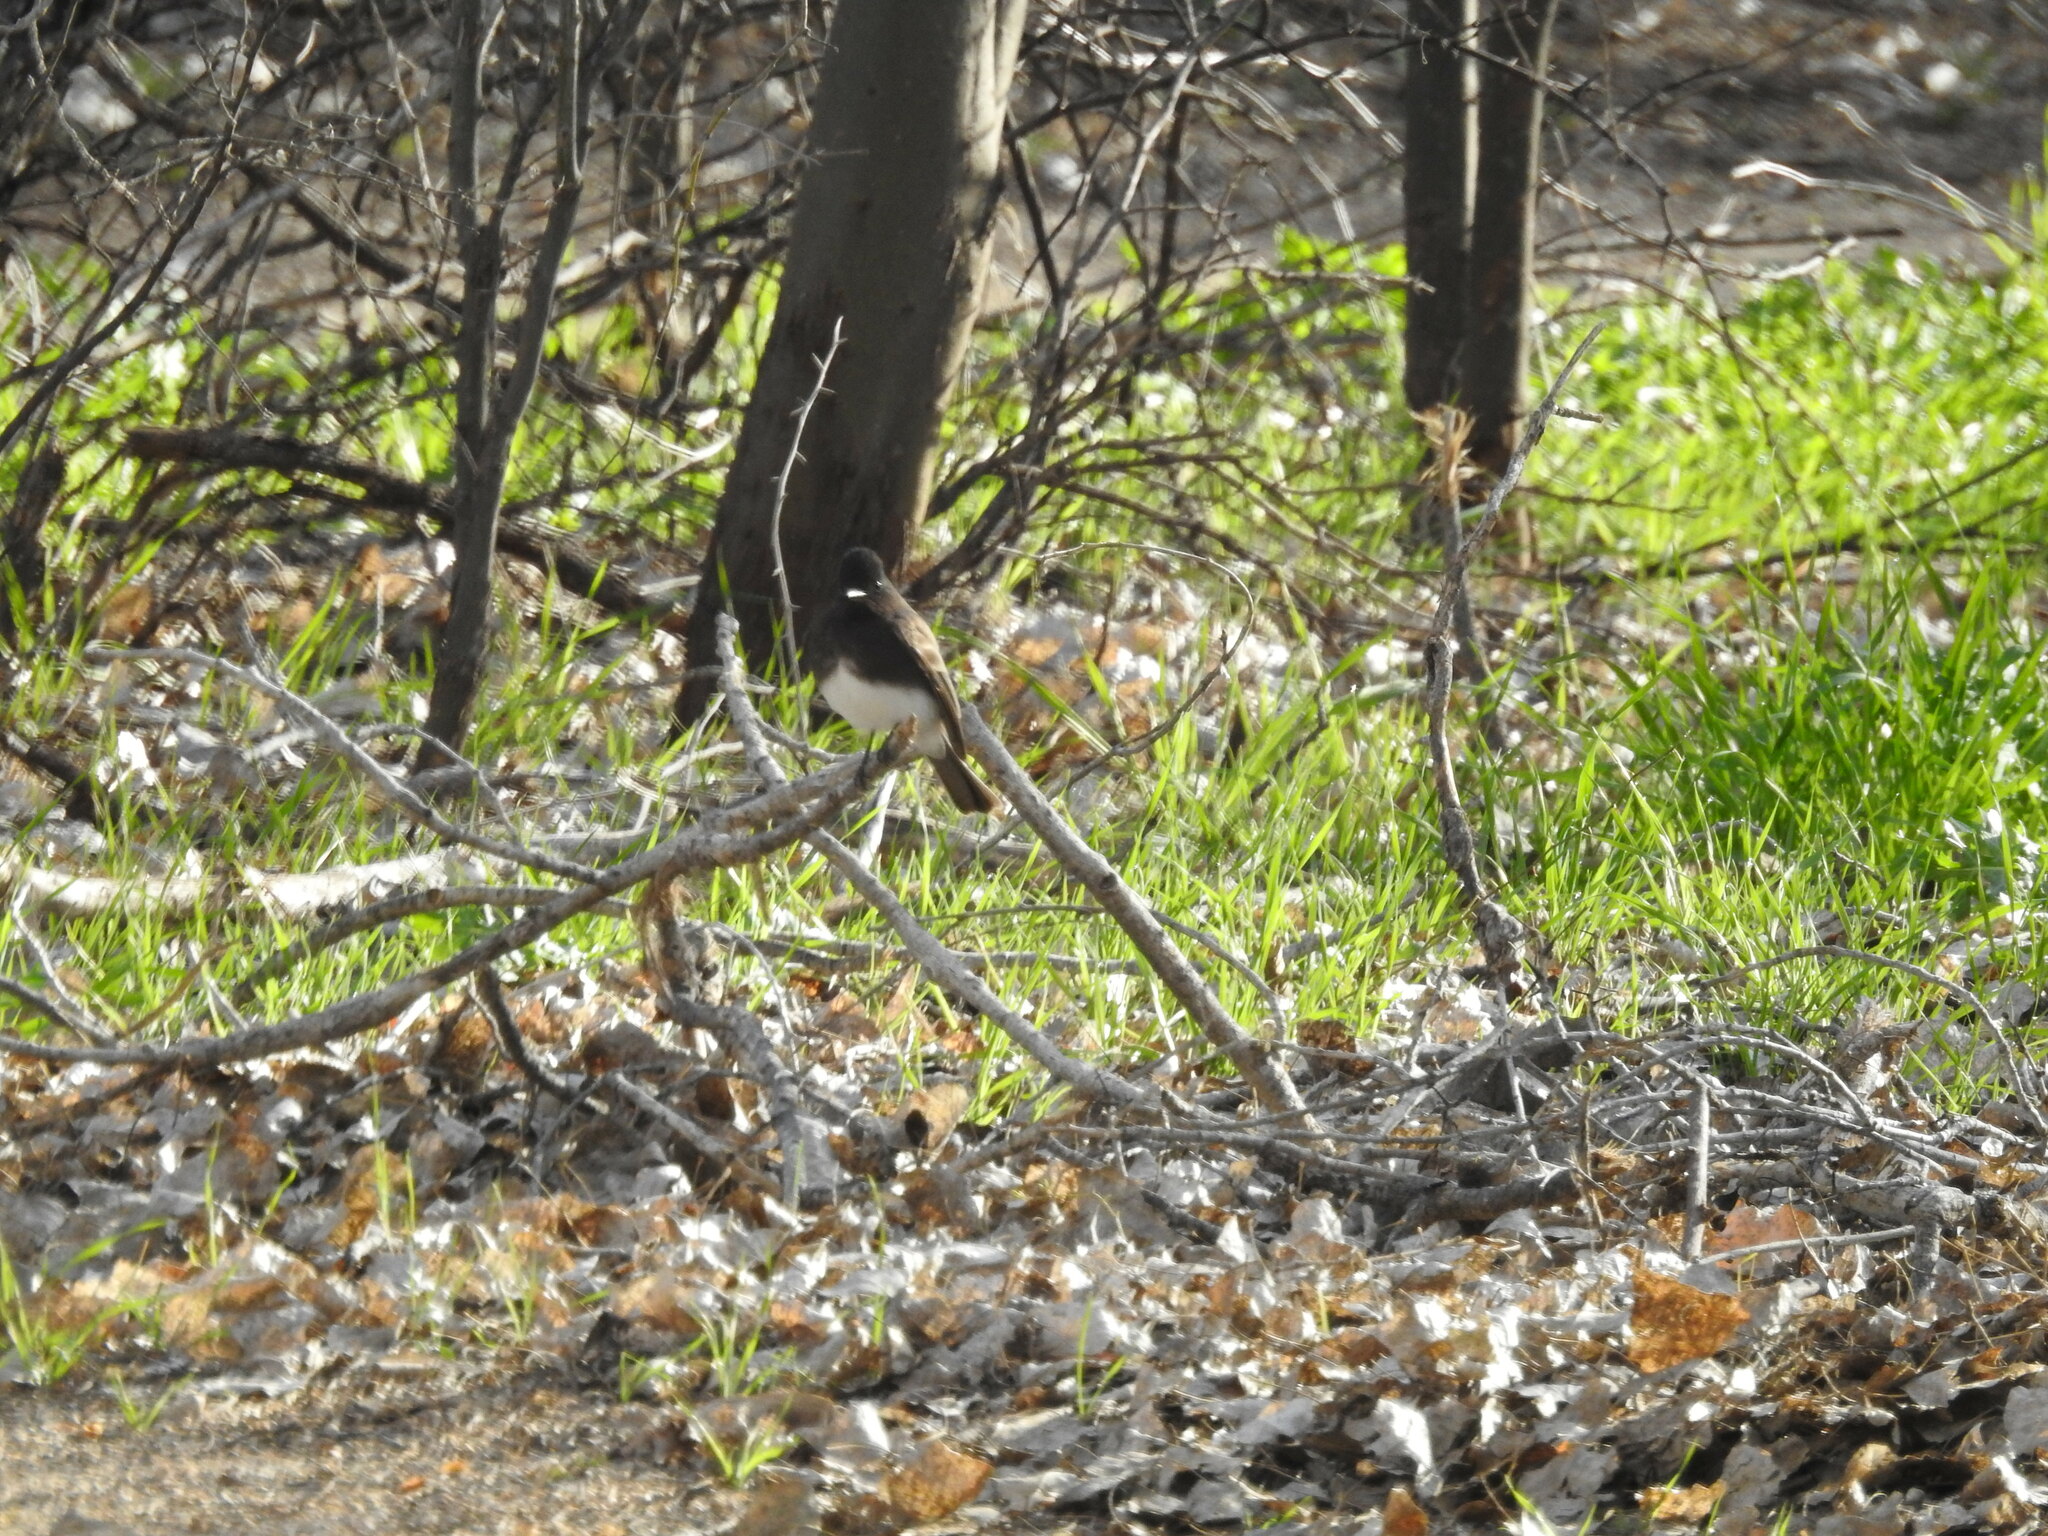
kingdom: Animalia
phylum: Chordata
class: Aves
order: Passeriformes
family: Tyrannidae
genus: Sayornis
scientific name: Sayornis nigricans
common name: Black phoebe
